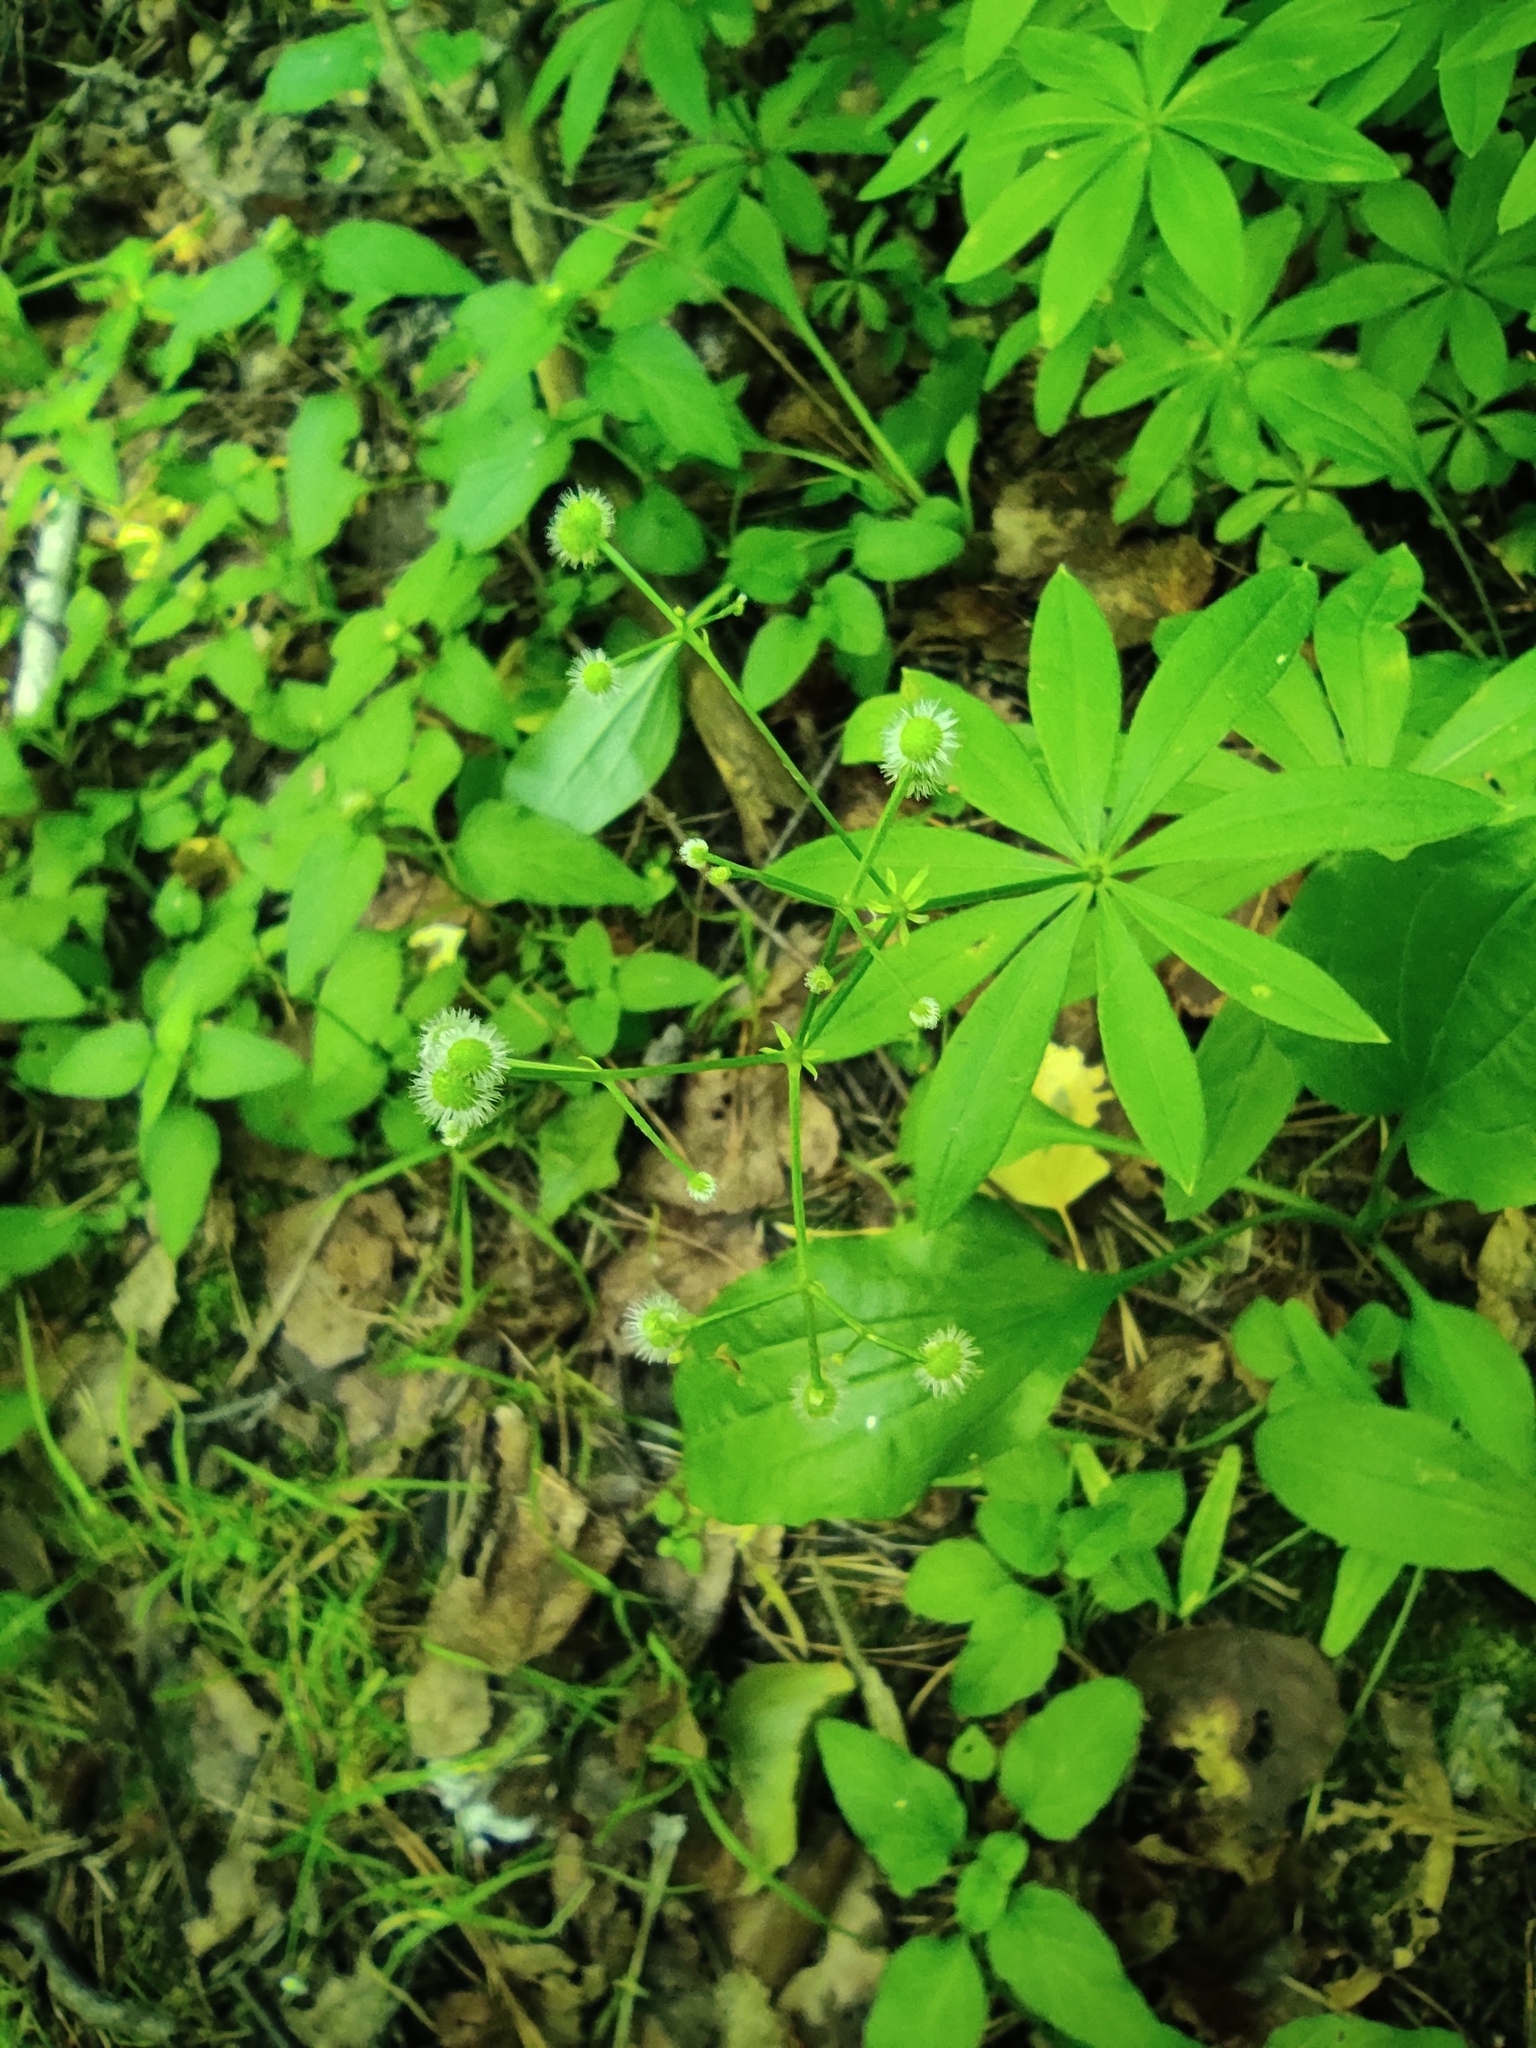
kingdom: Plantae
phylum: Tracheophyta
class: Magnoliopsida
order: Gentianales
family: Rubiaceae
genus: Galium
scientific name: Galium odoratum
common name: Sweet woodruff
